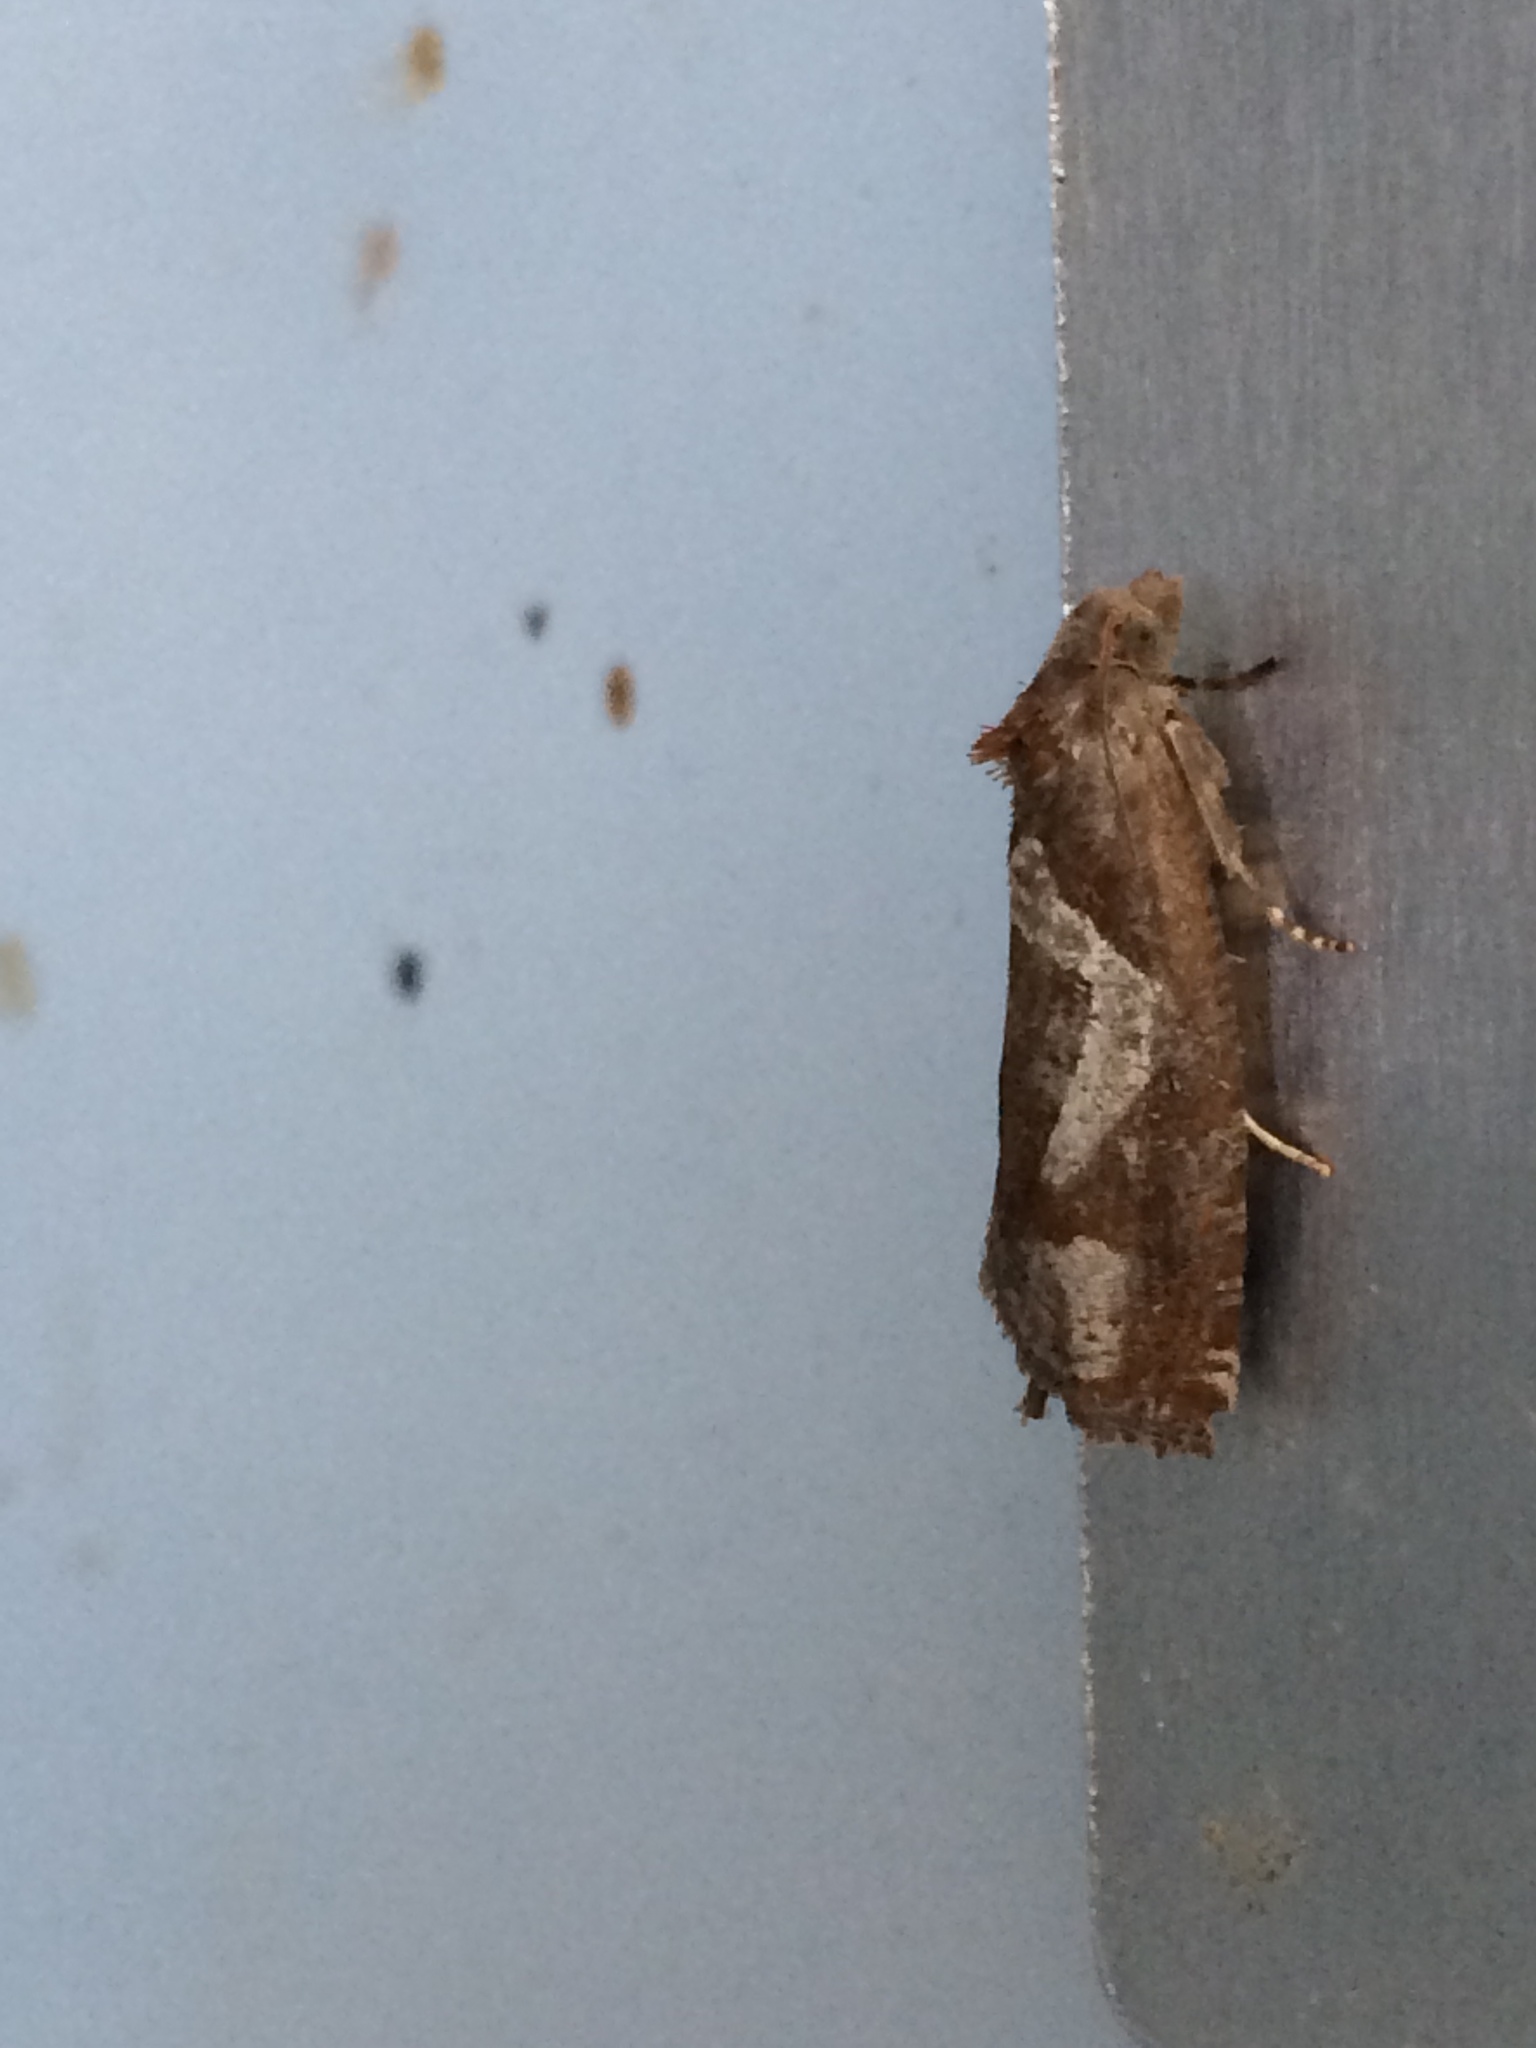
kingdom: Animalia
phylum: Arthropoda
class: Insecta
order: Lepidoptera
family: Tortricidae
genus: Epiblema
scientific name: Epiblema foenella
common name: White-foot bell
